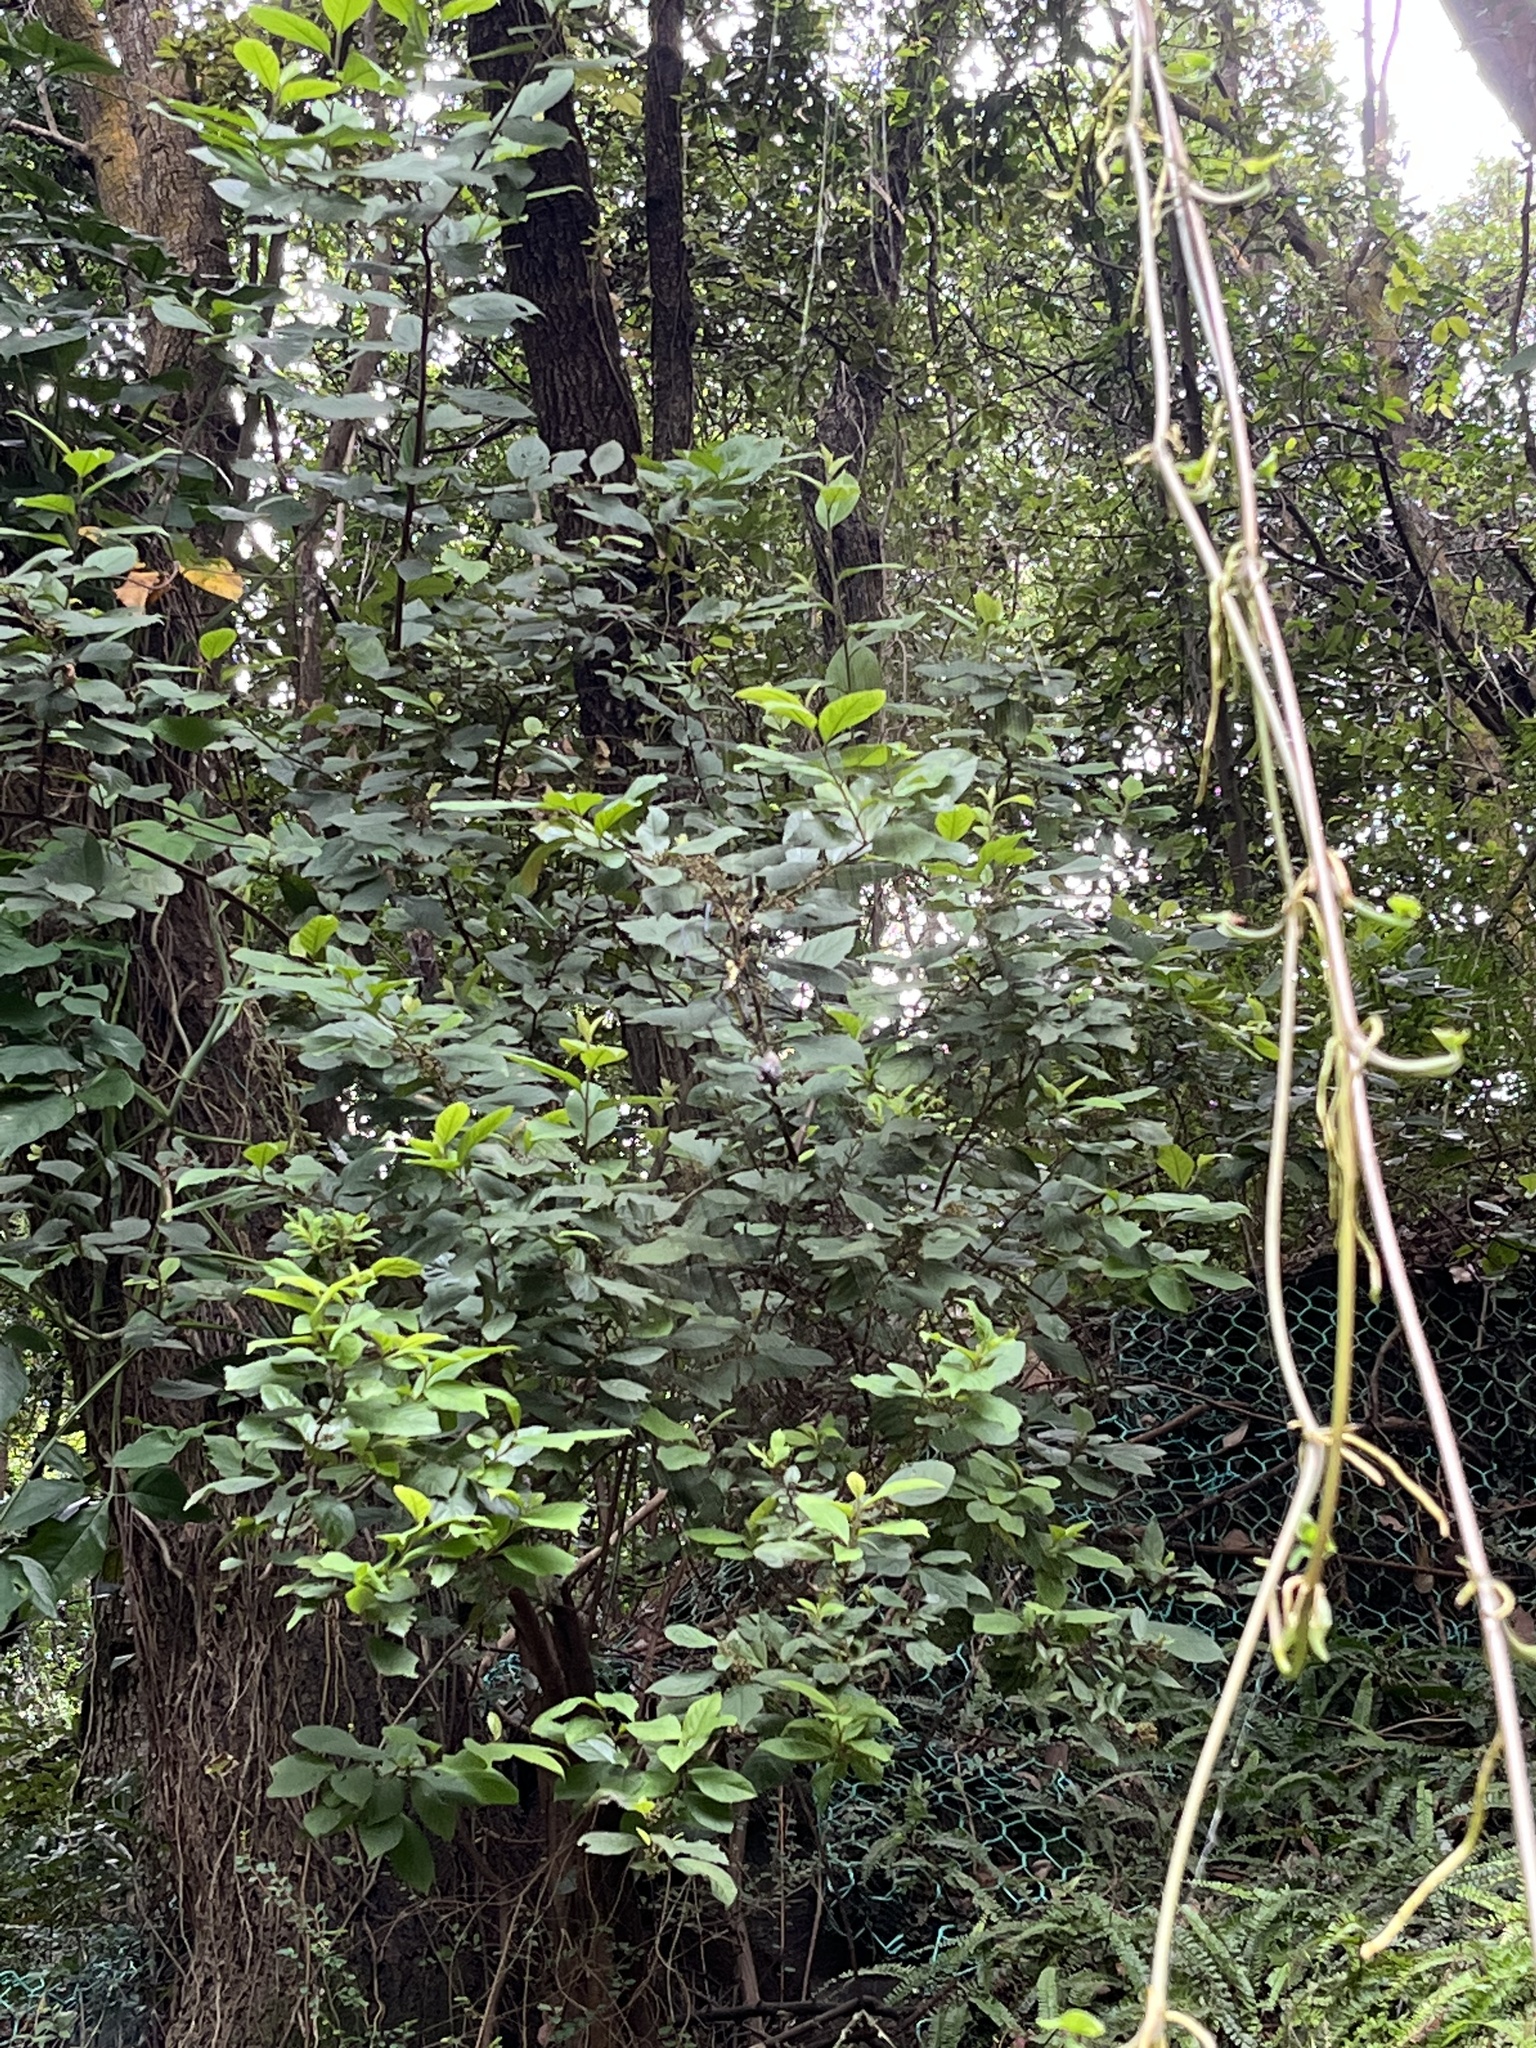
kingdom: Animalia
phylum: Arthropoda
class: Arachnida
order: Araneae
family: Araneidae
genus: Nephila
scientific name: Nephila pilipes
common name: Giant golden orb weaver
